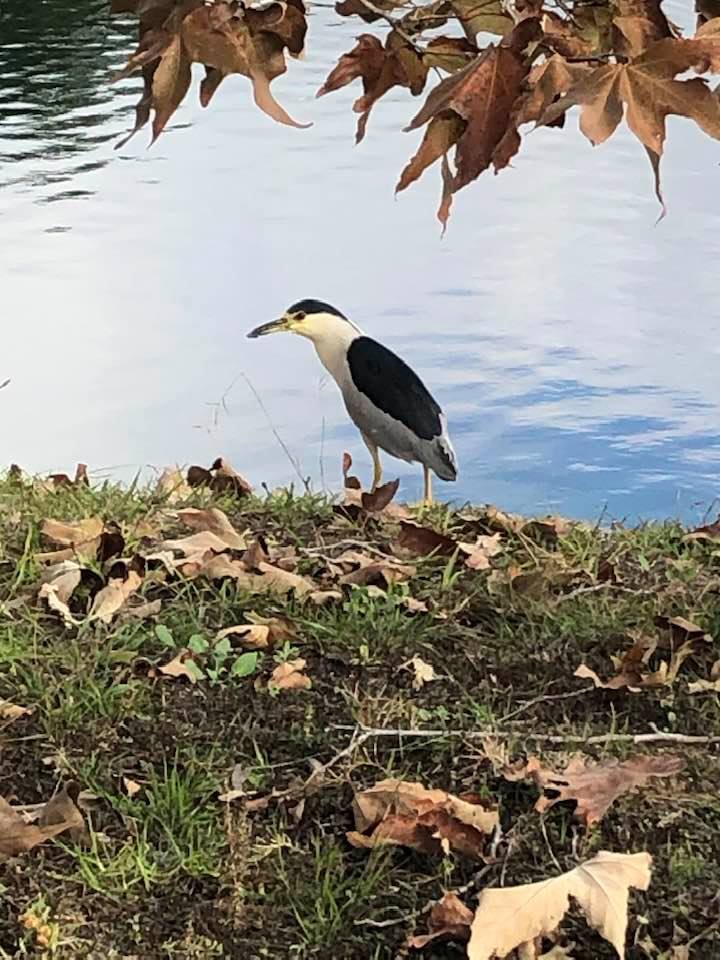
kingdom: Animalia
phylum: Chordata
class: Aves
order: Pelecaniformes
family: Ardeidae
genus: Nycticorax
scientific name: Nycticorax nycticorax
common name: Black-crowned night heron
